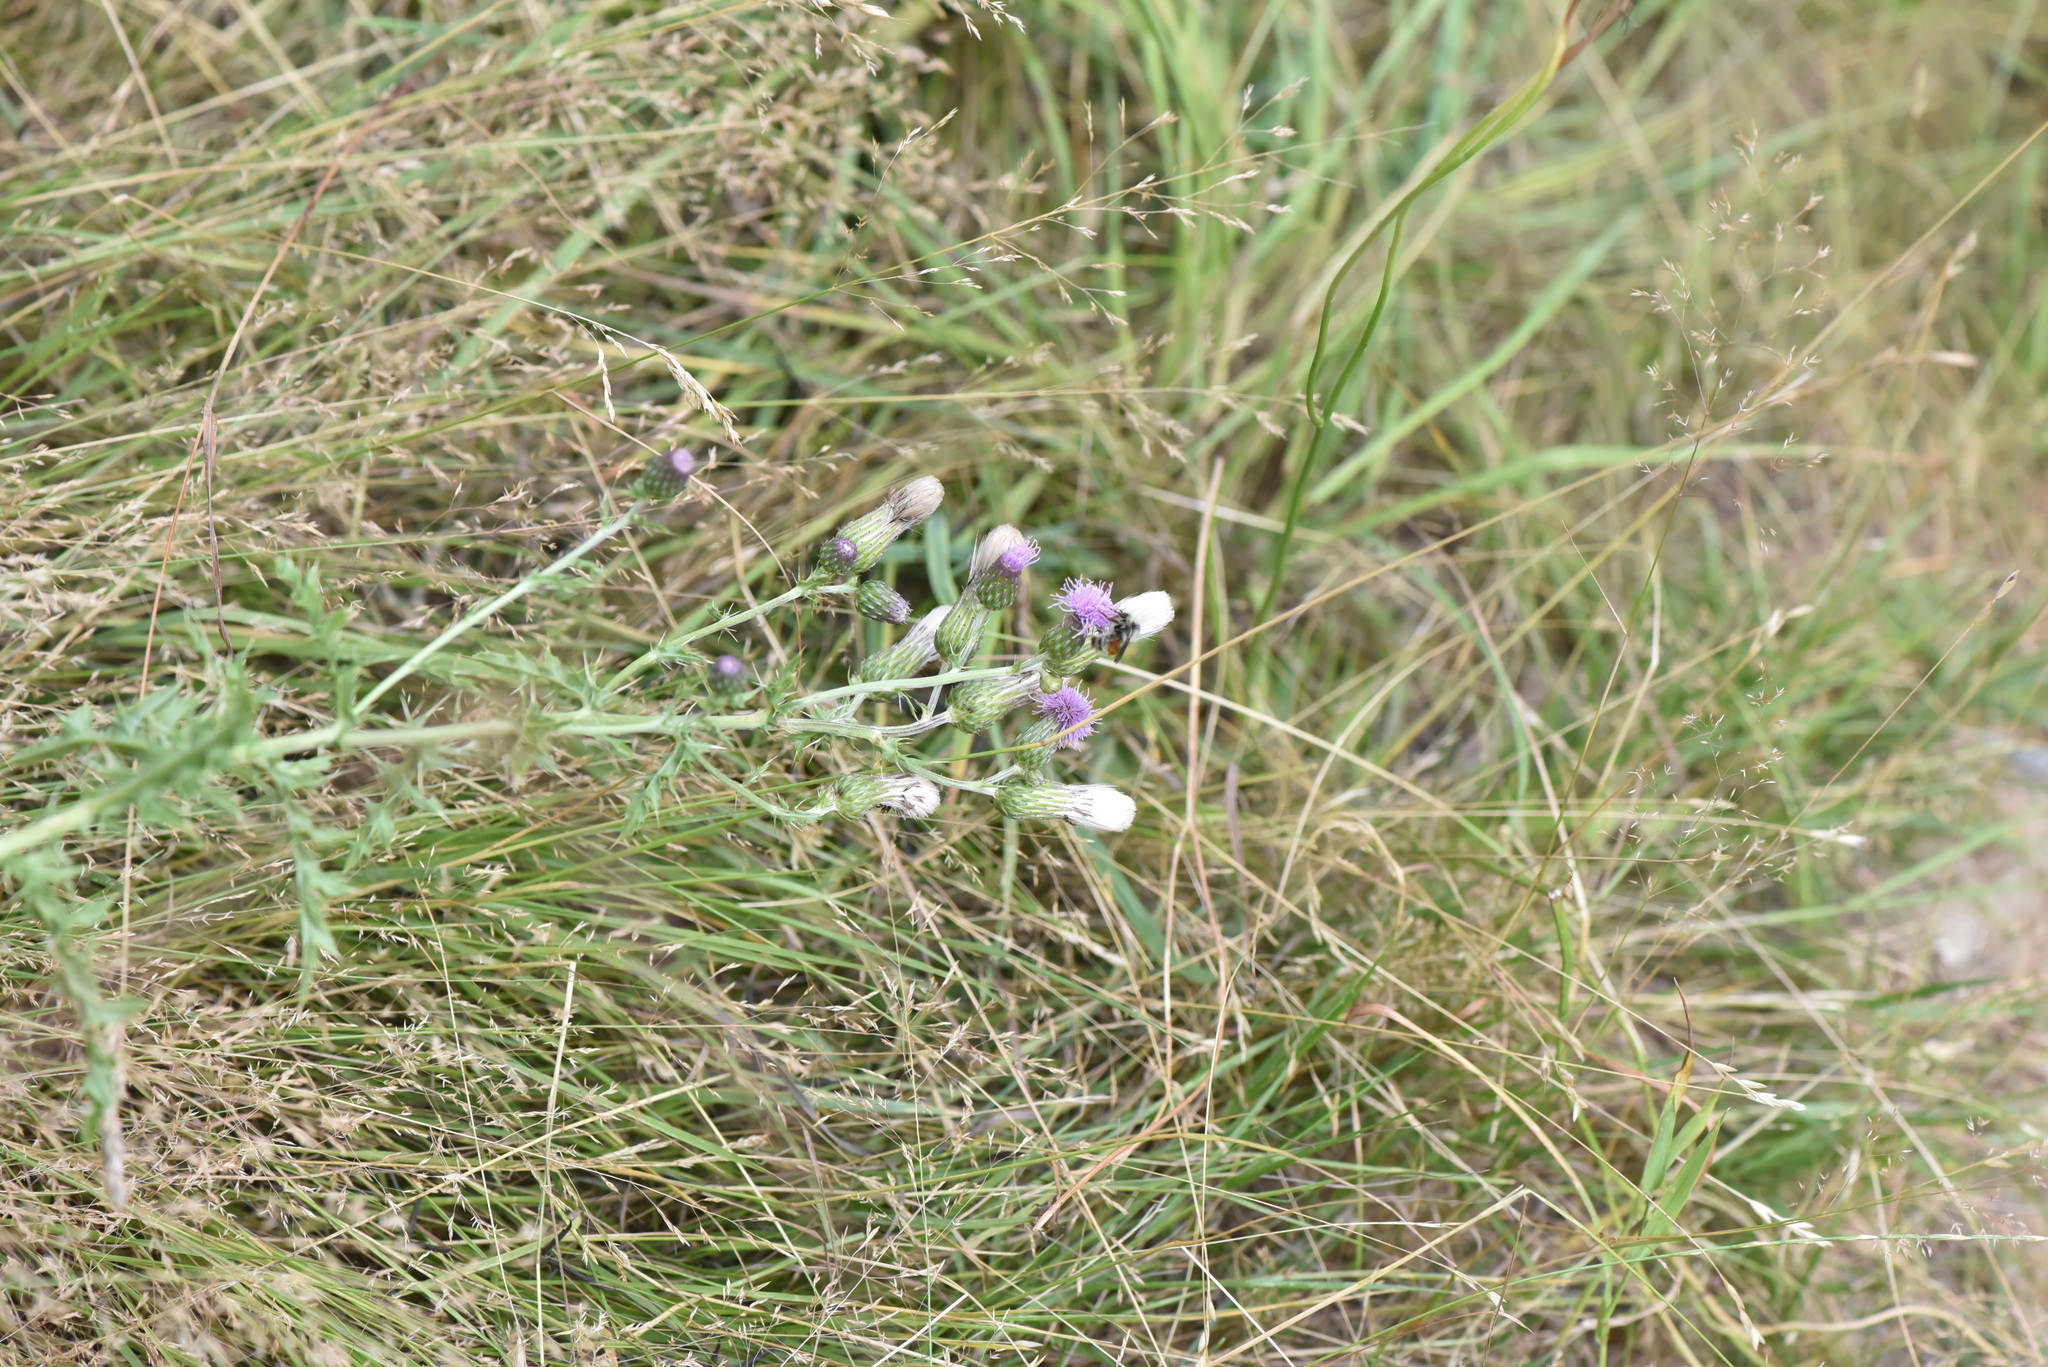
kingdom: Plantae
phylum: Tracheophyta
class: Magnoliopsida
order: Asterales
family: Asteraceae
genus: Cirsium
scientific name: Cirsium arvense
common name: Creeping thistle
